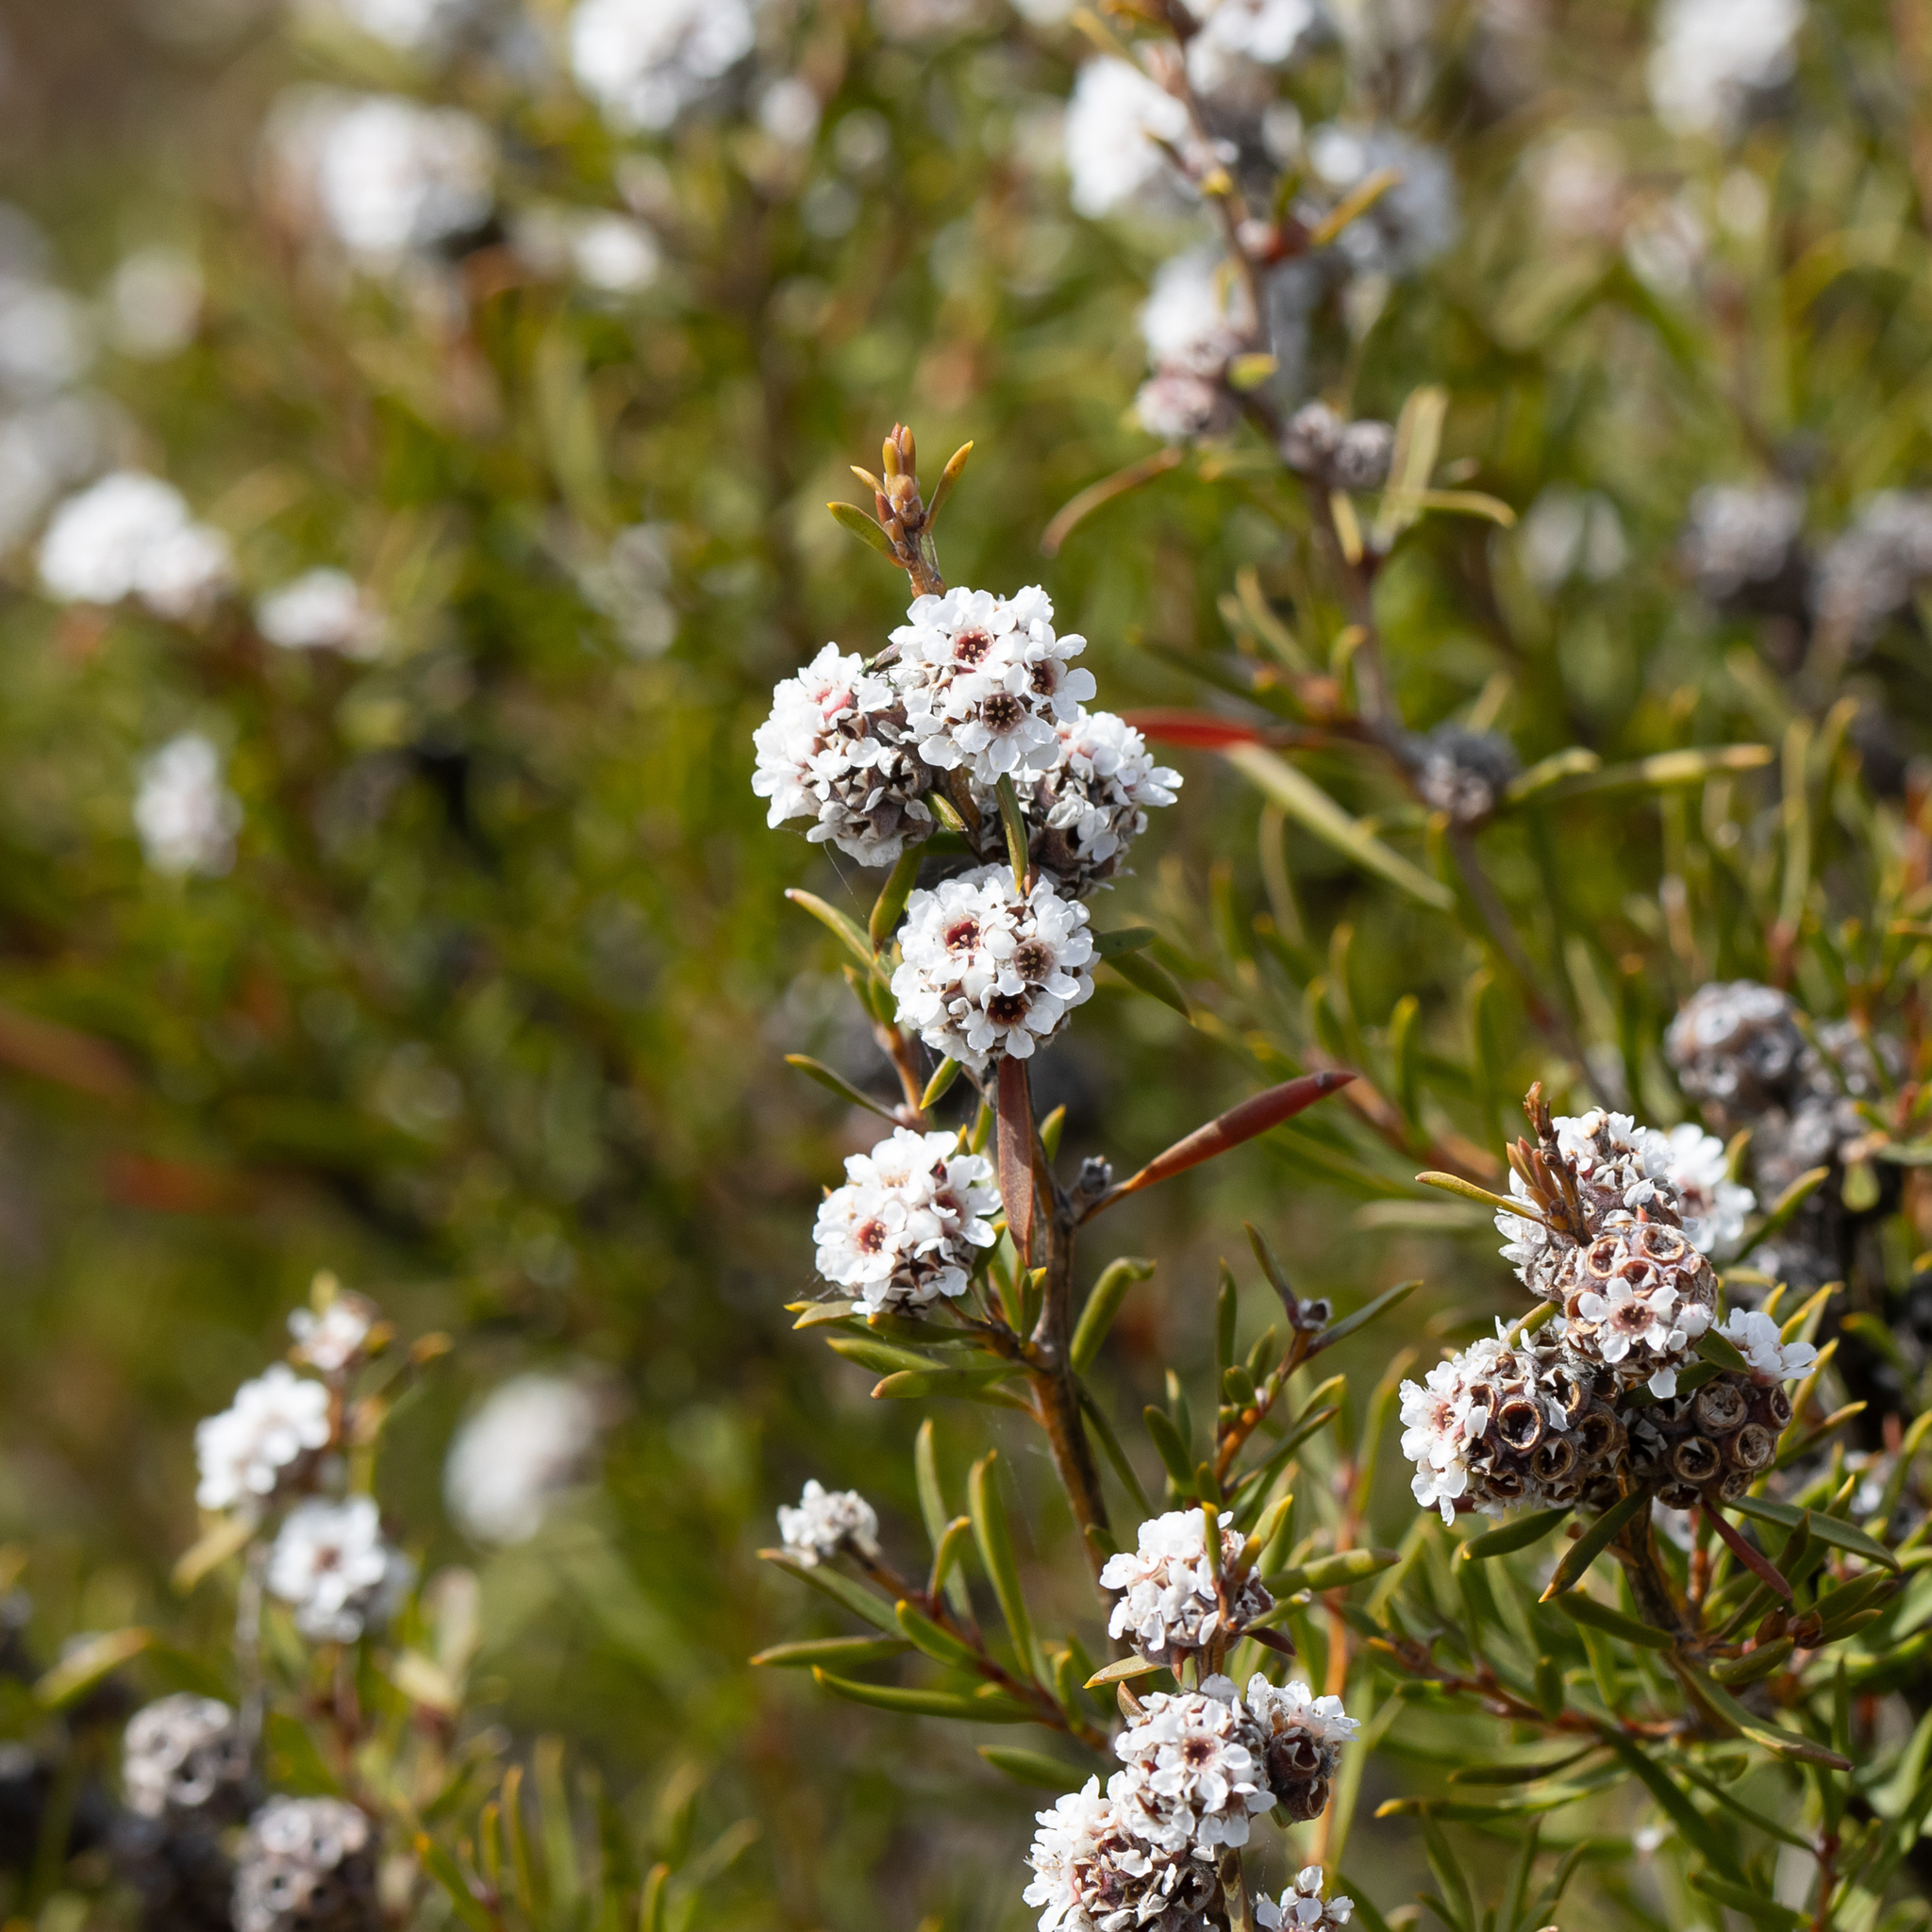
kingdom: Plantae
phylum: Tracheophyta
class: Magnoliopsida
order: Myrtales
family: Myrtaceae
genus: Taxandria
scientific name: Taxandria callistachys
